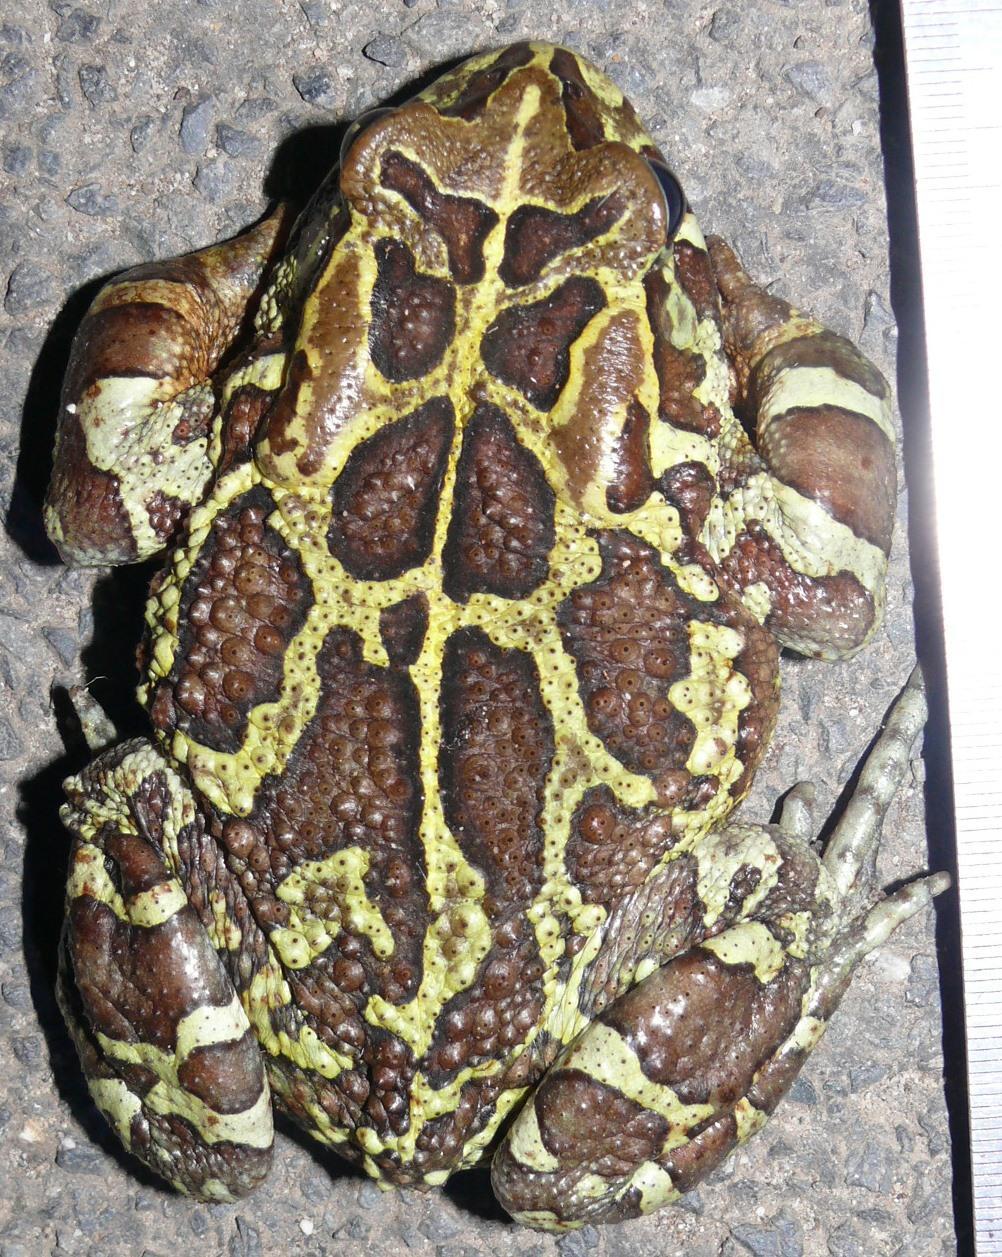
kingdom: Animalia
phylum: Chordata
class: Amphibia
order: Anura
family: Bufonidae
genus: Sclerophrys
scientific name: Sclerophrys pantherina
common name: Panther toad
